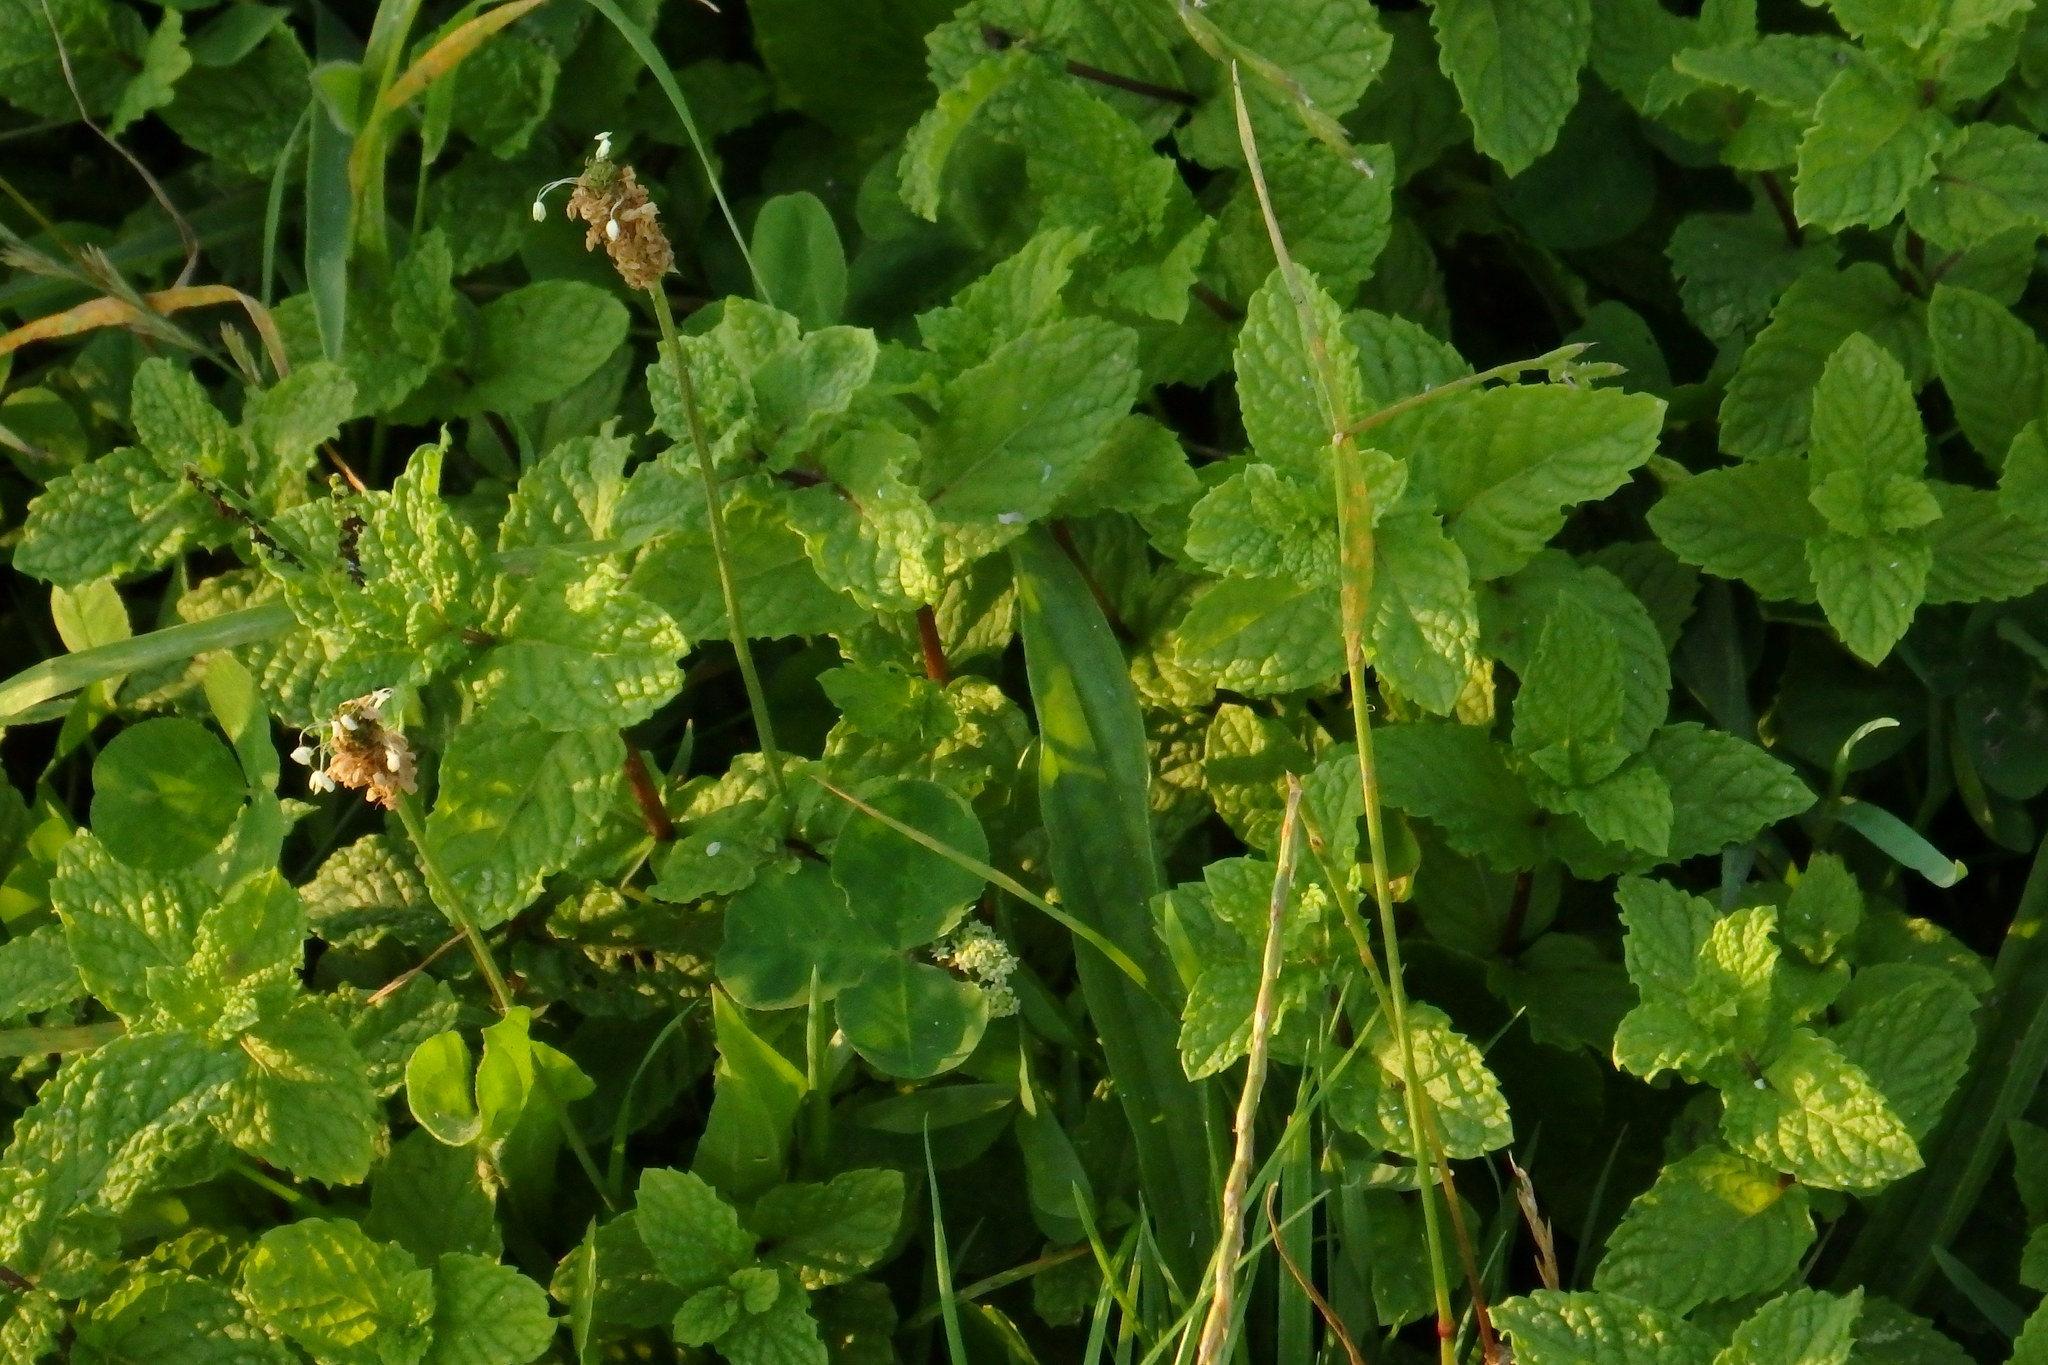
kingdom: Plantae
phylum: Tracheophyta
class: Magnoliopsida
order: Lamiales
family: Lamiaceae
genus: Mentha
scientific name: Mentha spicata
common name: Spearmint
